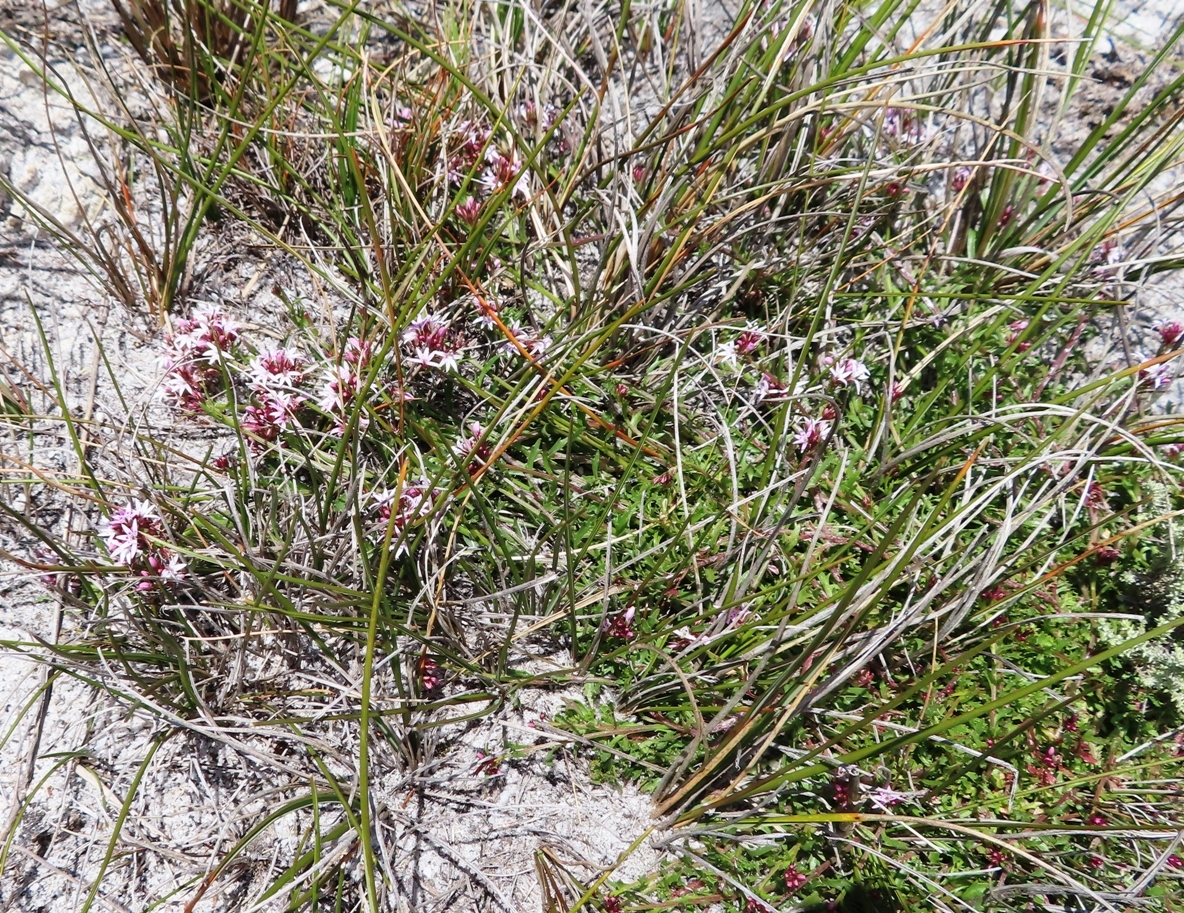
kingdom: Plantae
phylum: Tracheophyta
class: Magnoliopsida
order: Asterales
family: Campanulaceae
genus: Lobelia
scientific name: Lobelia jasionoides
